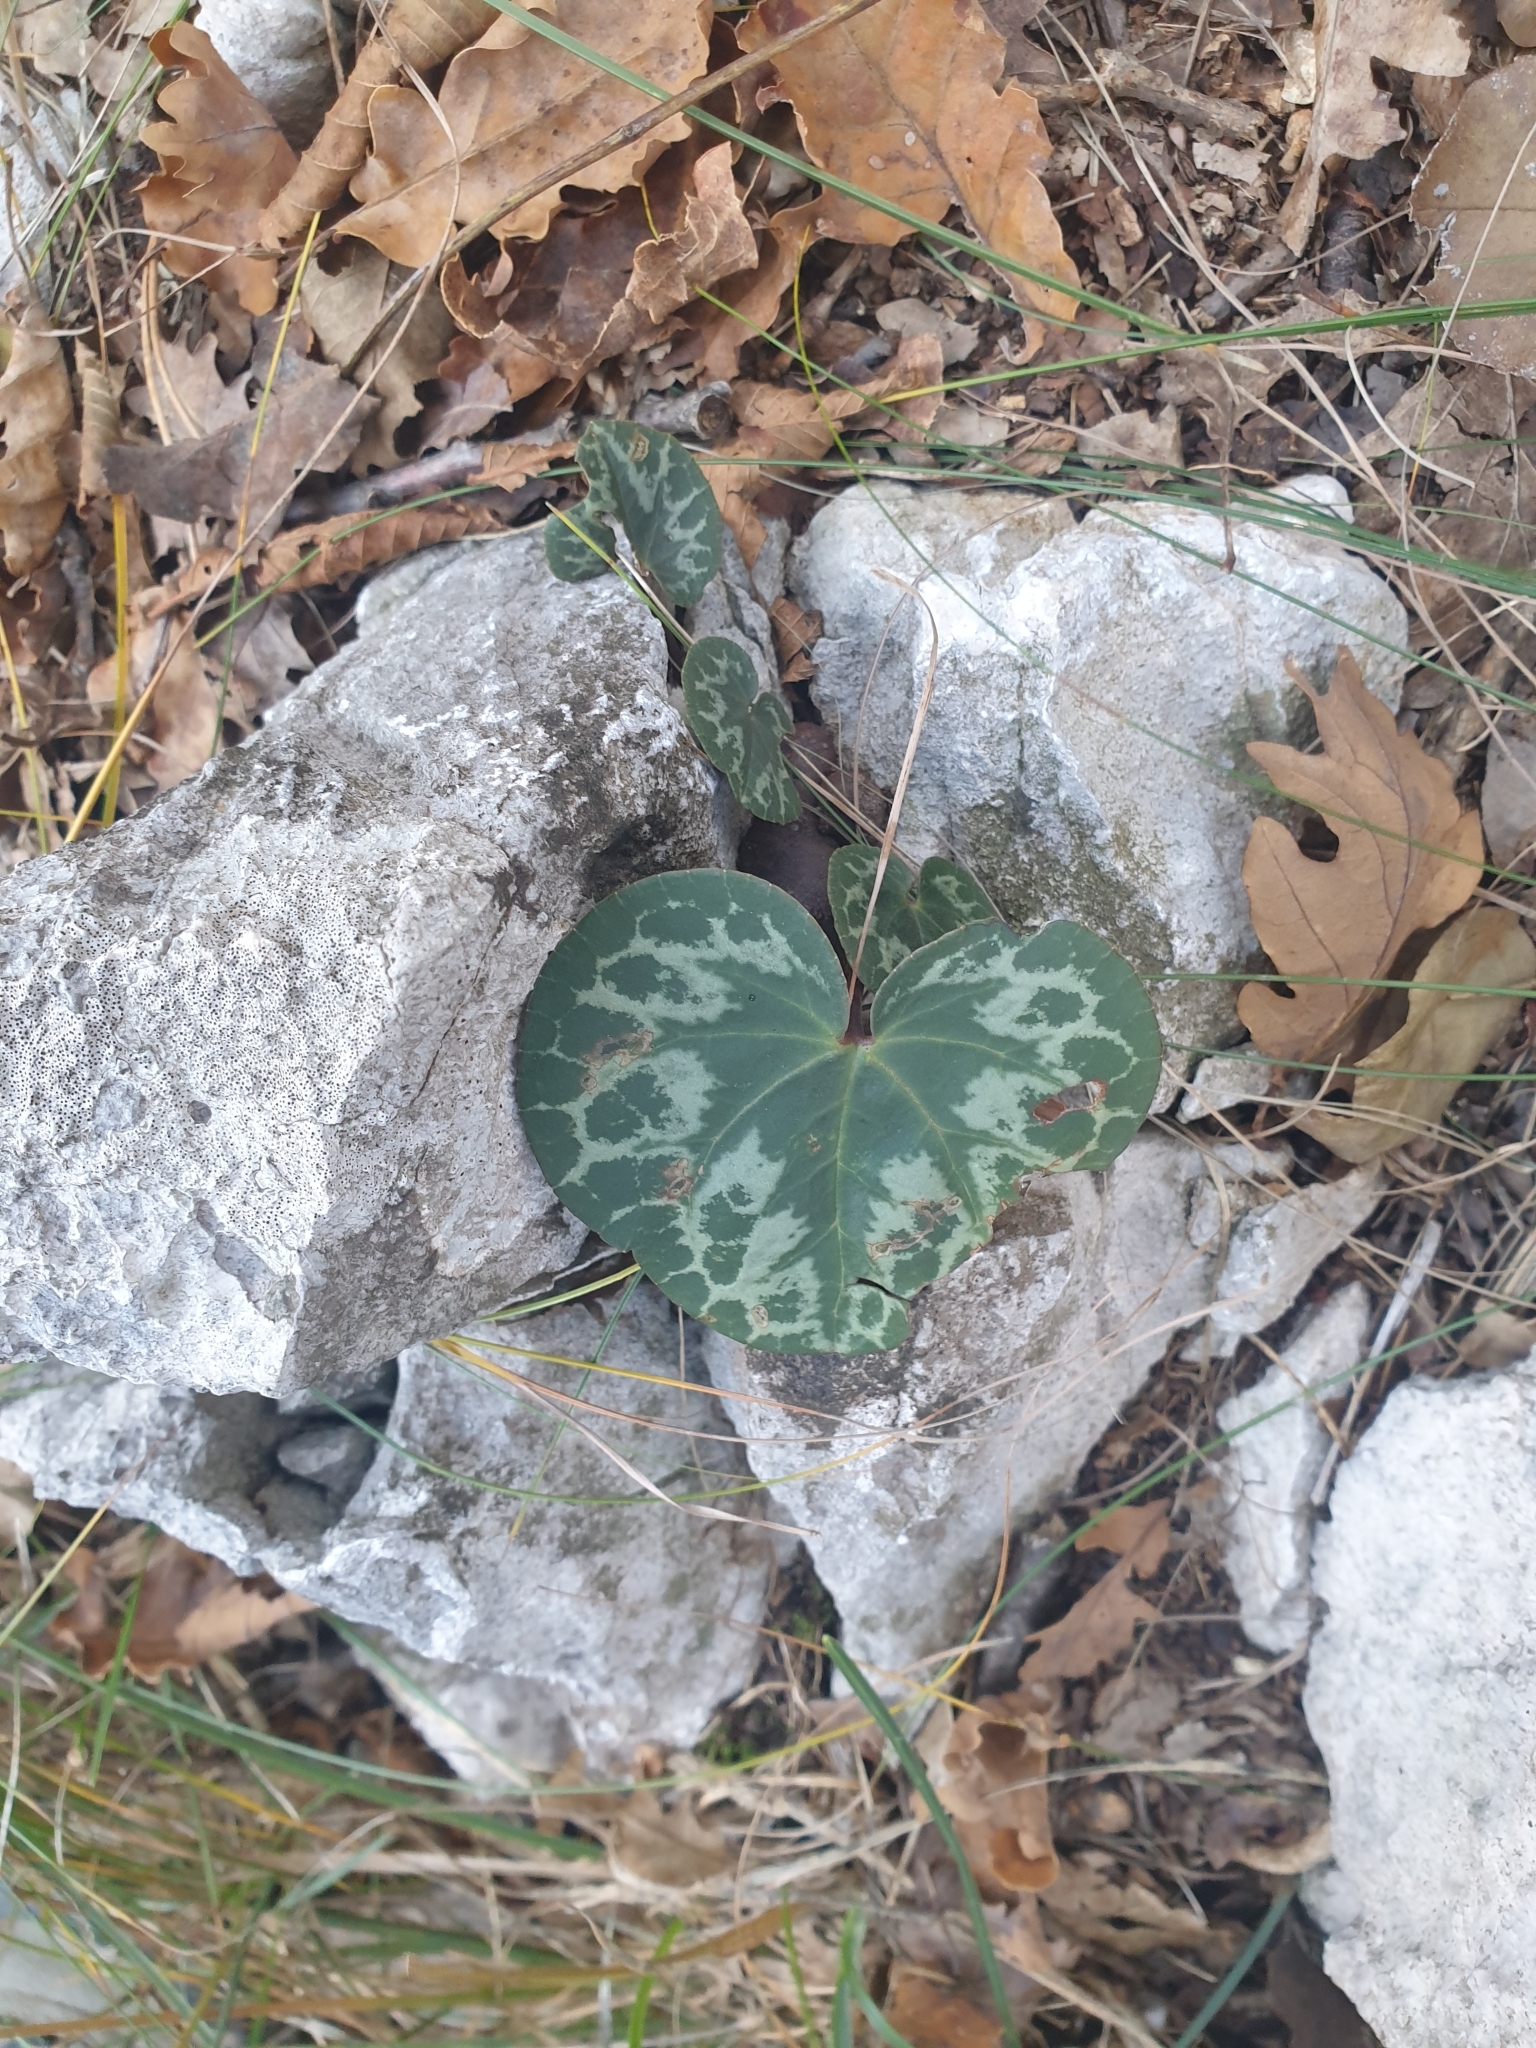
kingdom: Plantae
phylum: Tracheophyta
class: Magnoliopsida
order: Ericales
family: Primulaceae
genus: Cyclamen
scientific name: Cyclamen purpurascens
